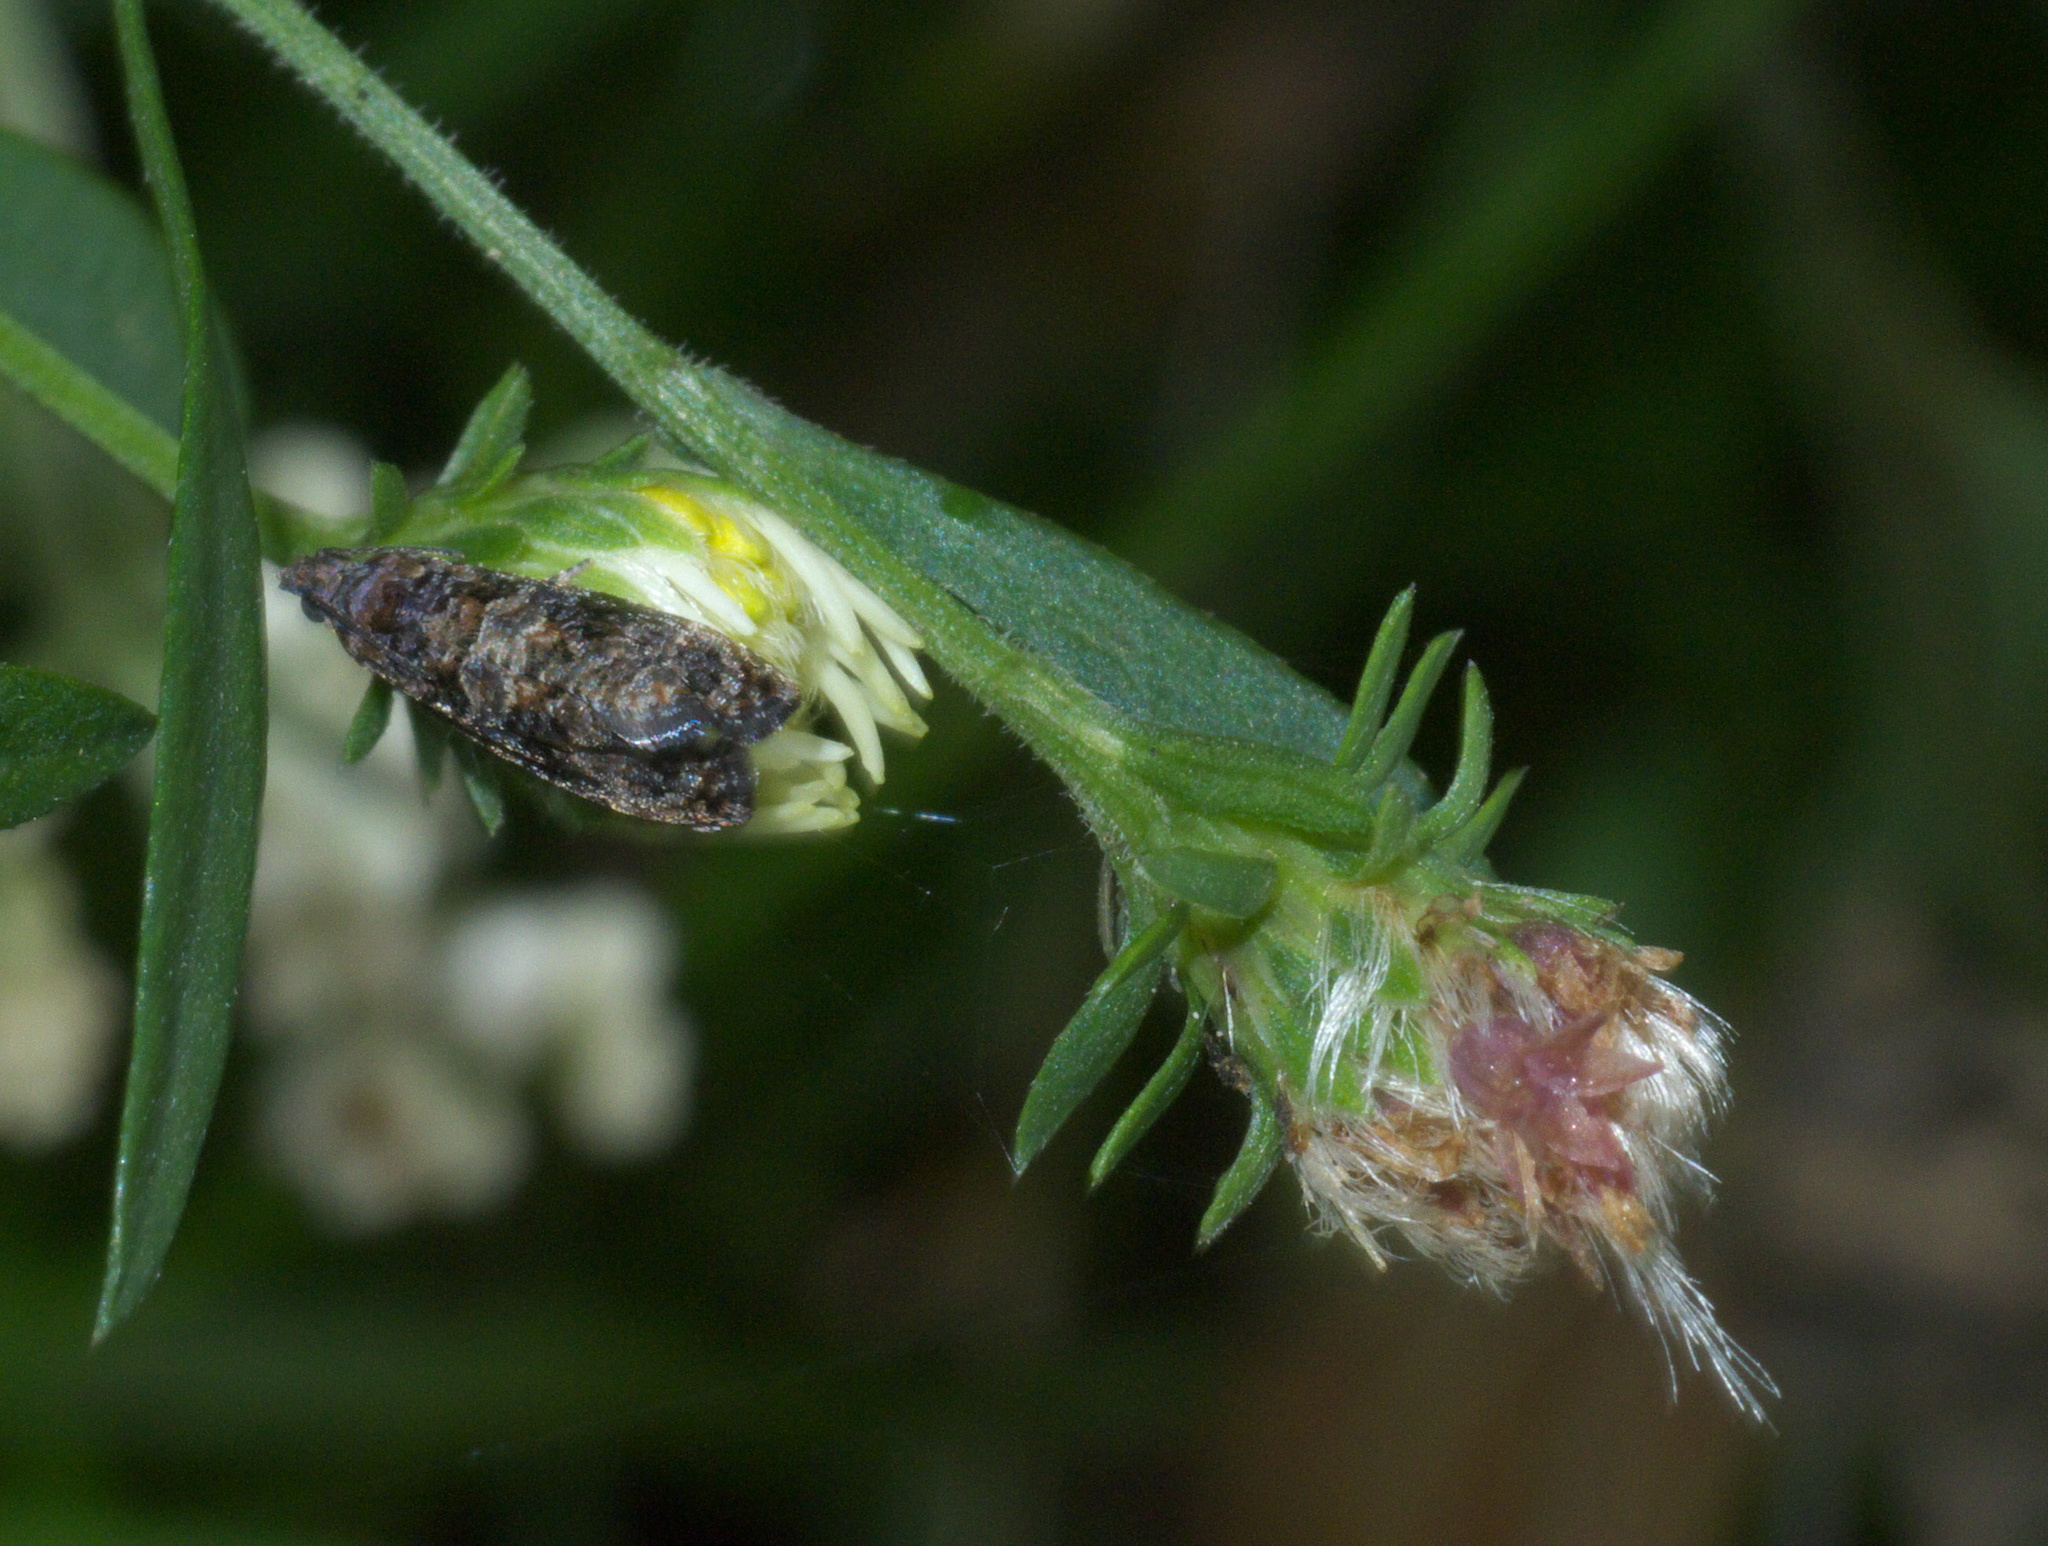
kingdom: Animalia
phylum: Arthropoda
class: Insecta
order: Lepidoptera
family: Tortricidae
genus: Endothenia
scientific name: Endothenia hebesana
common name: Verbena bud moth
